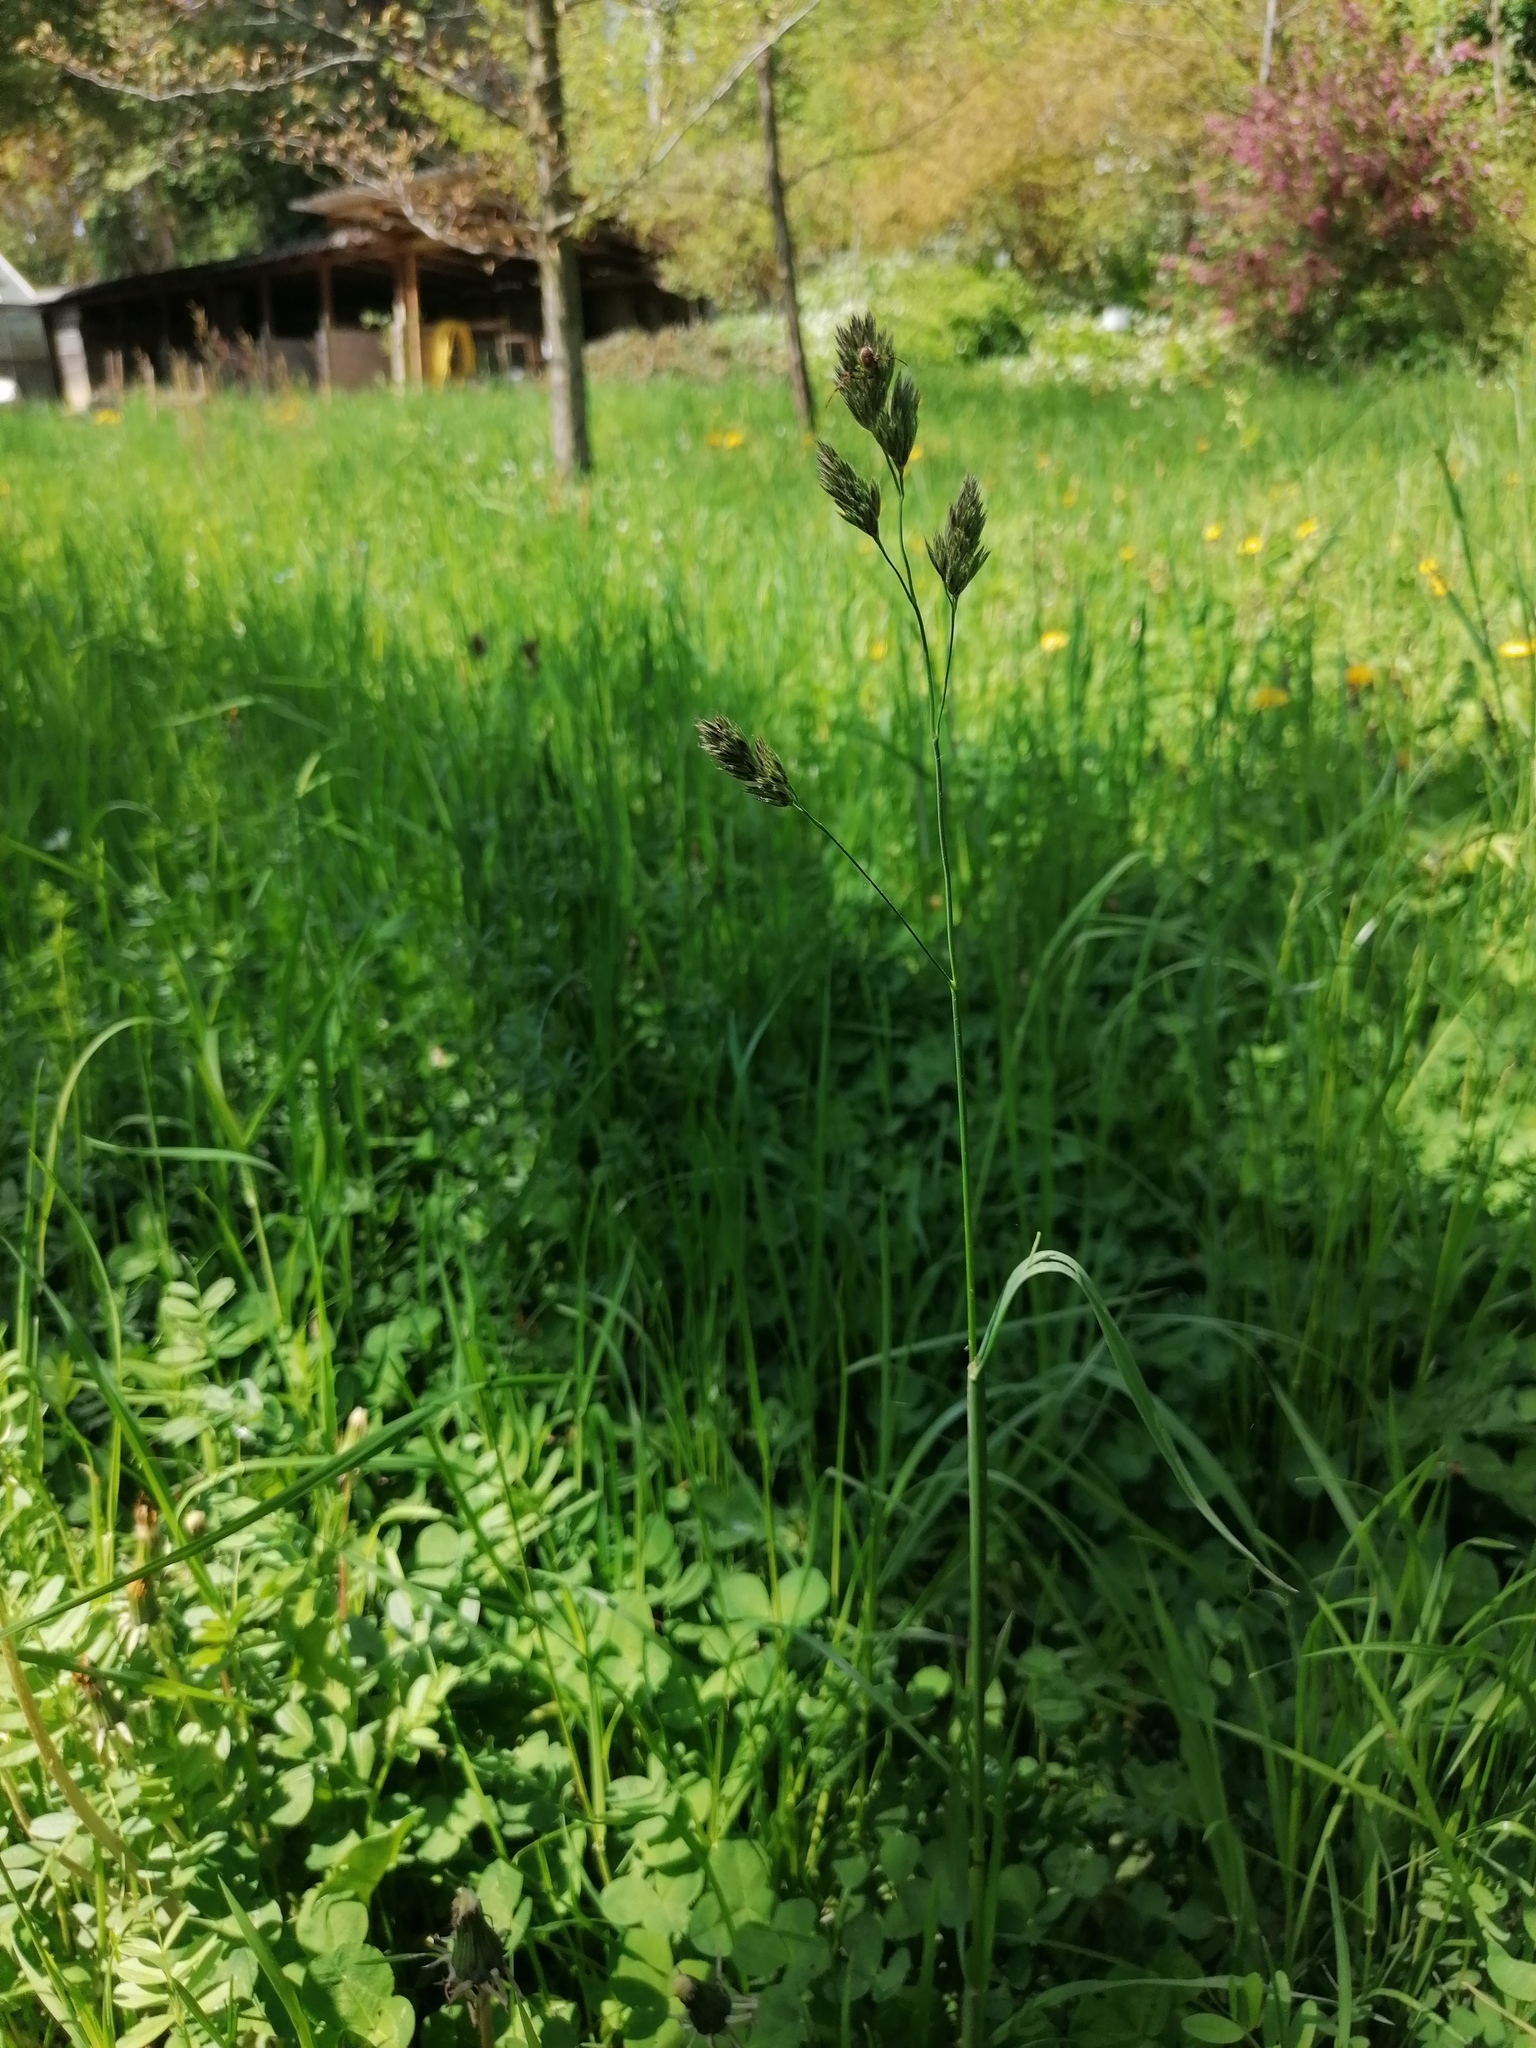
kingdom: Plantae
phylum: Tracheophyta
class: Liliopsida
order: Poales
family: Poaceae
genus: Dactylis
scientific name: Dactylis glomerata
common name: Orchardgrass
